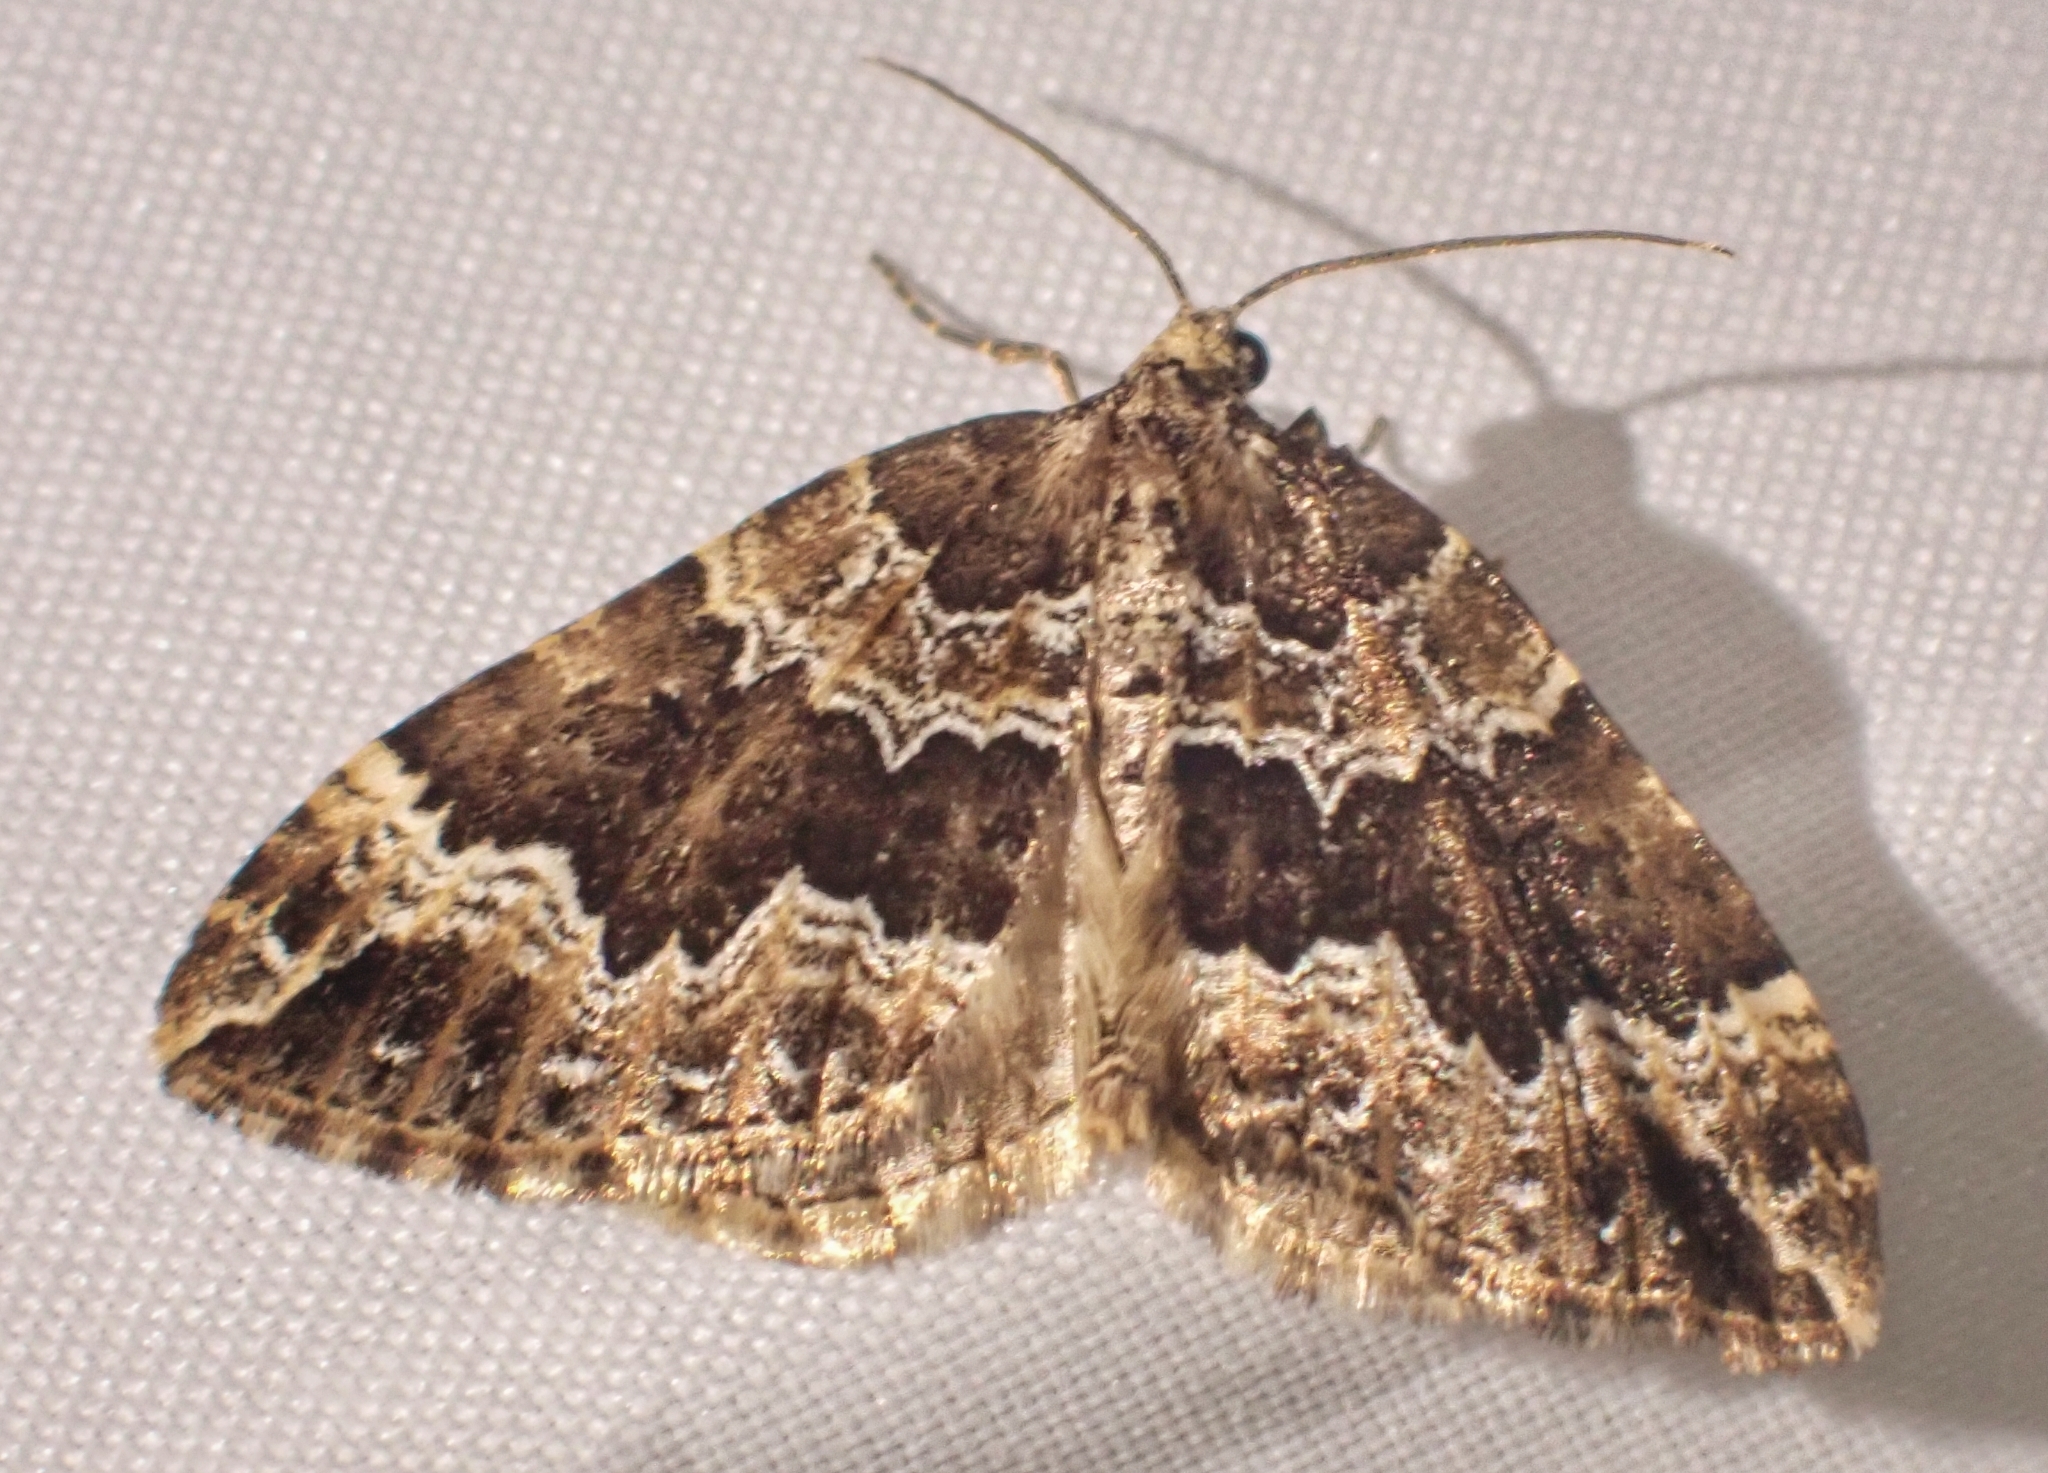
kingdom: Animalia
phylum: Arthropoda
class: Insecta
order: Lepidoptera
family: Geometridae
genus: Lampropteryx
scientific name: Lampropteryx suffumata
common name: Water carpet
